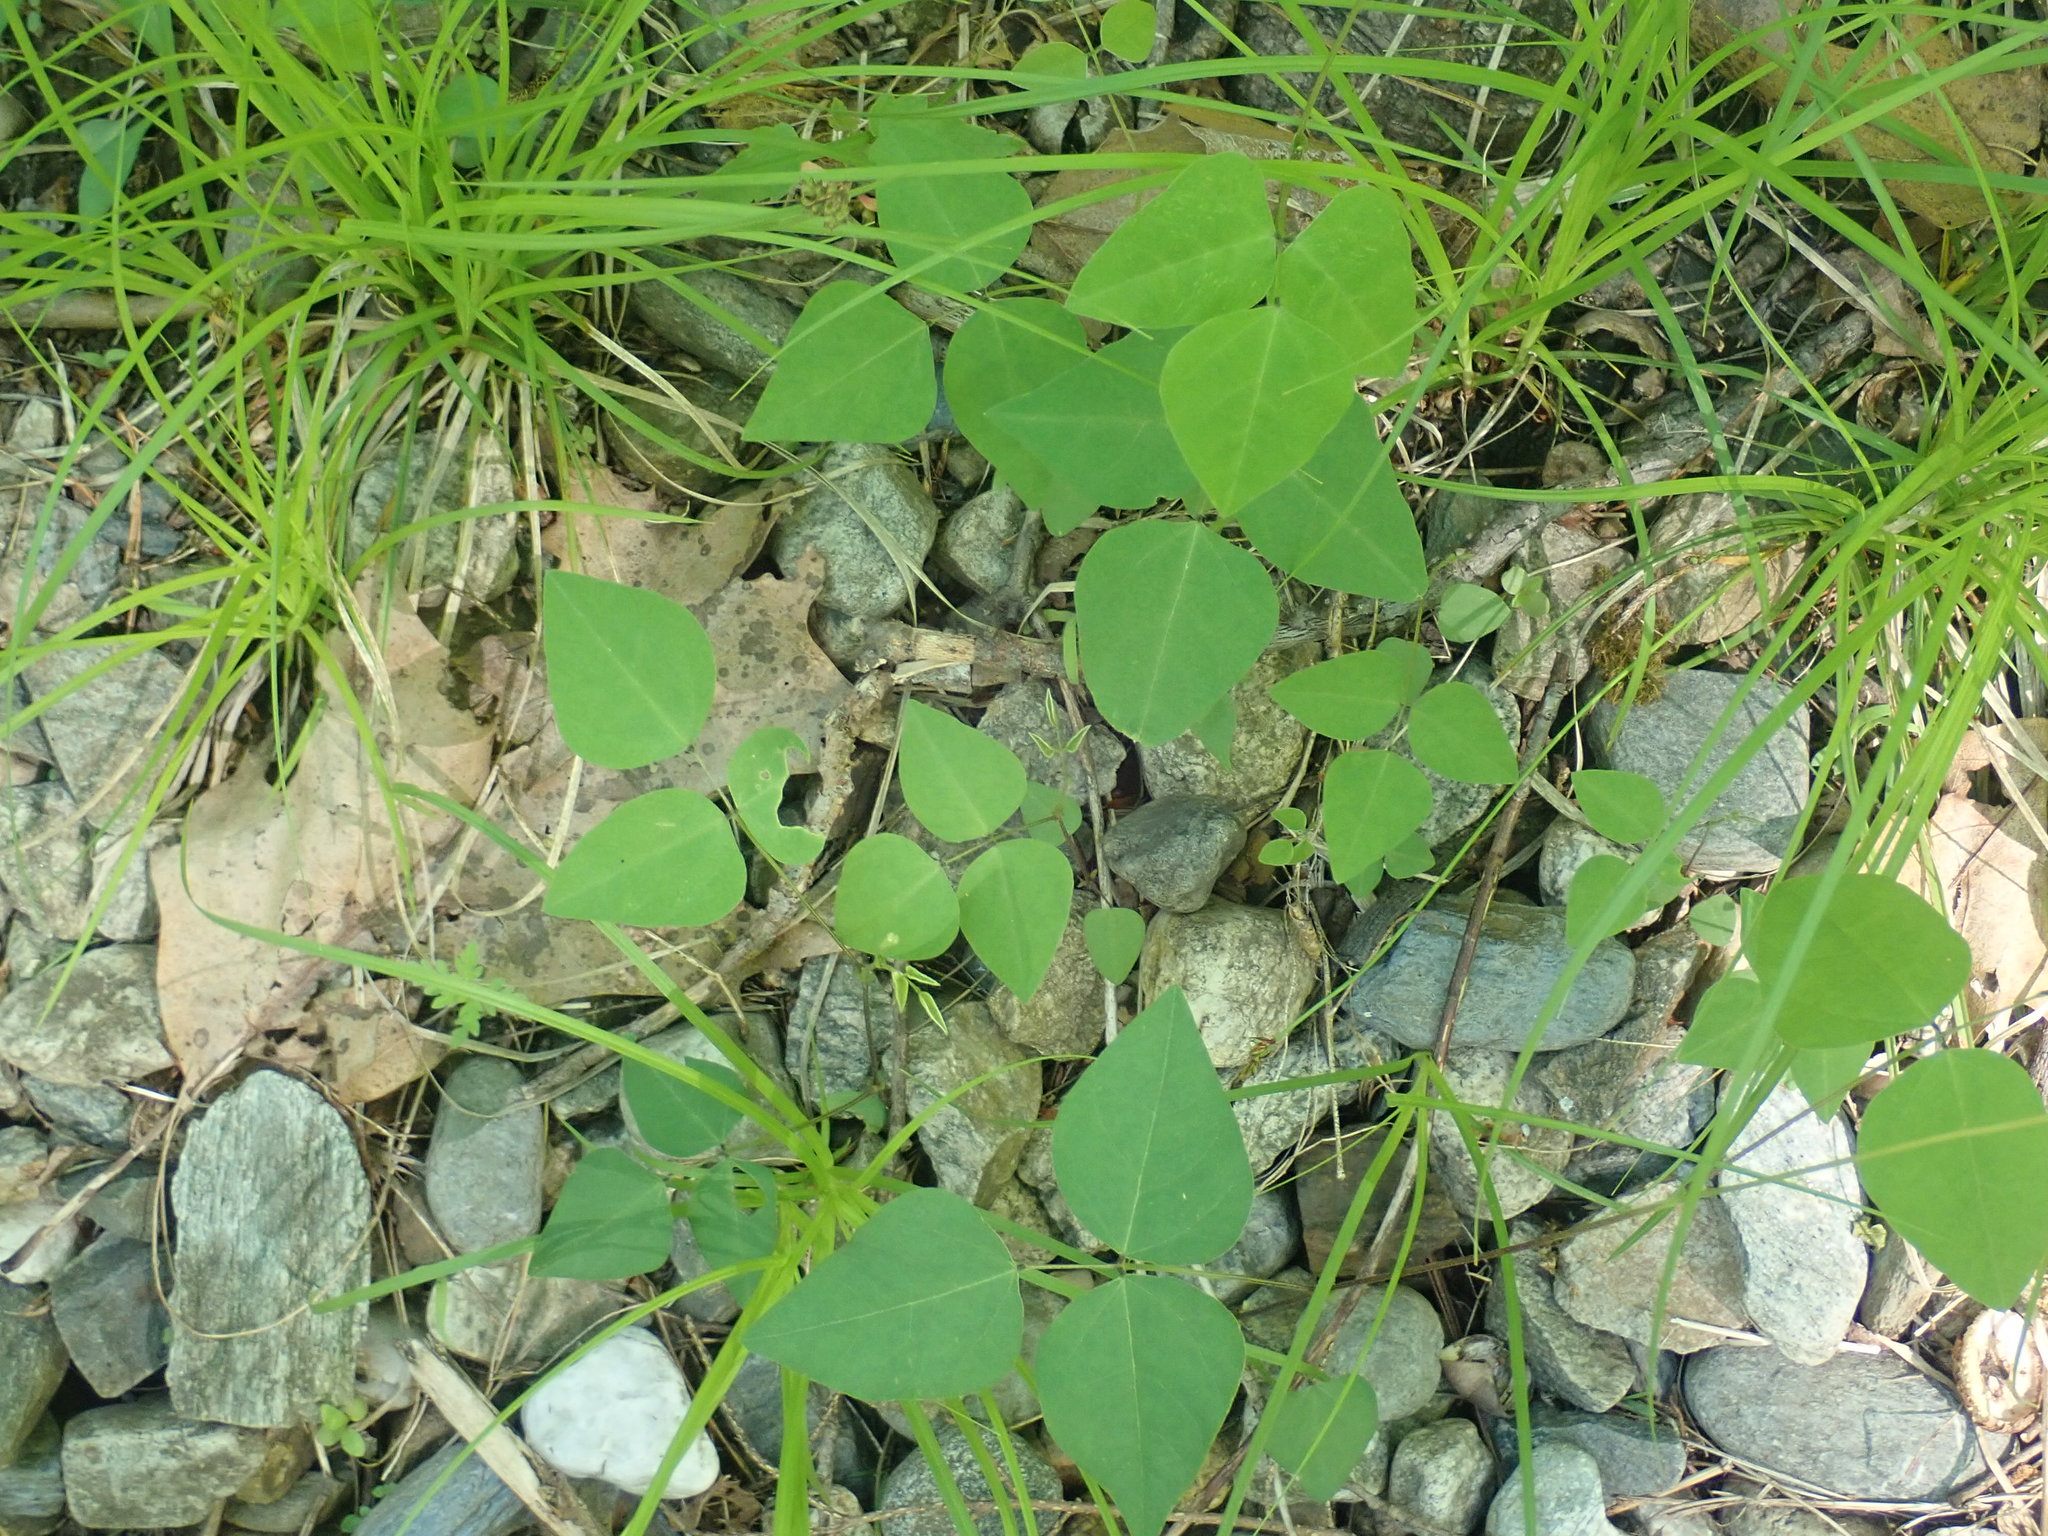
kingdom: Plantae
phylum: Tracheophyta
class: Magnoliopsida
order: Fabales
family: Fabaceae
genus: Amphicarpaea
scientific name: Amphicarpaea bracteata
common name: American hog peanut
